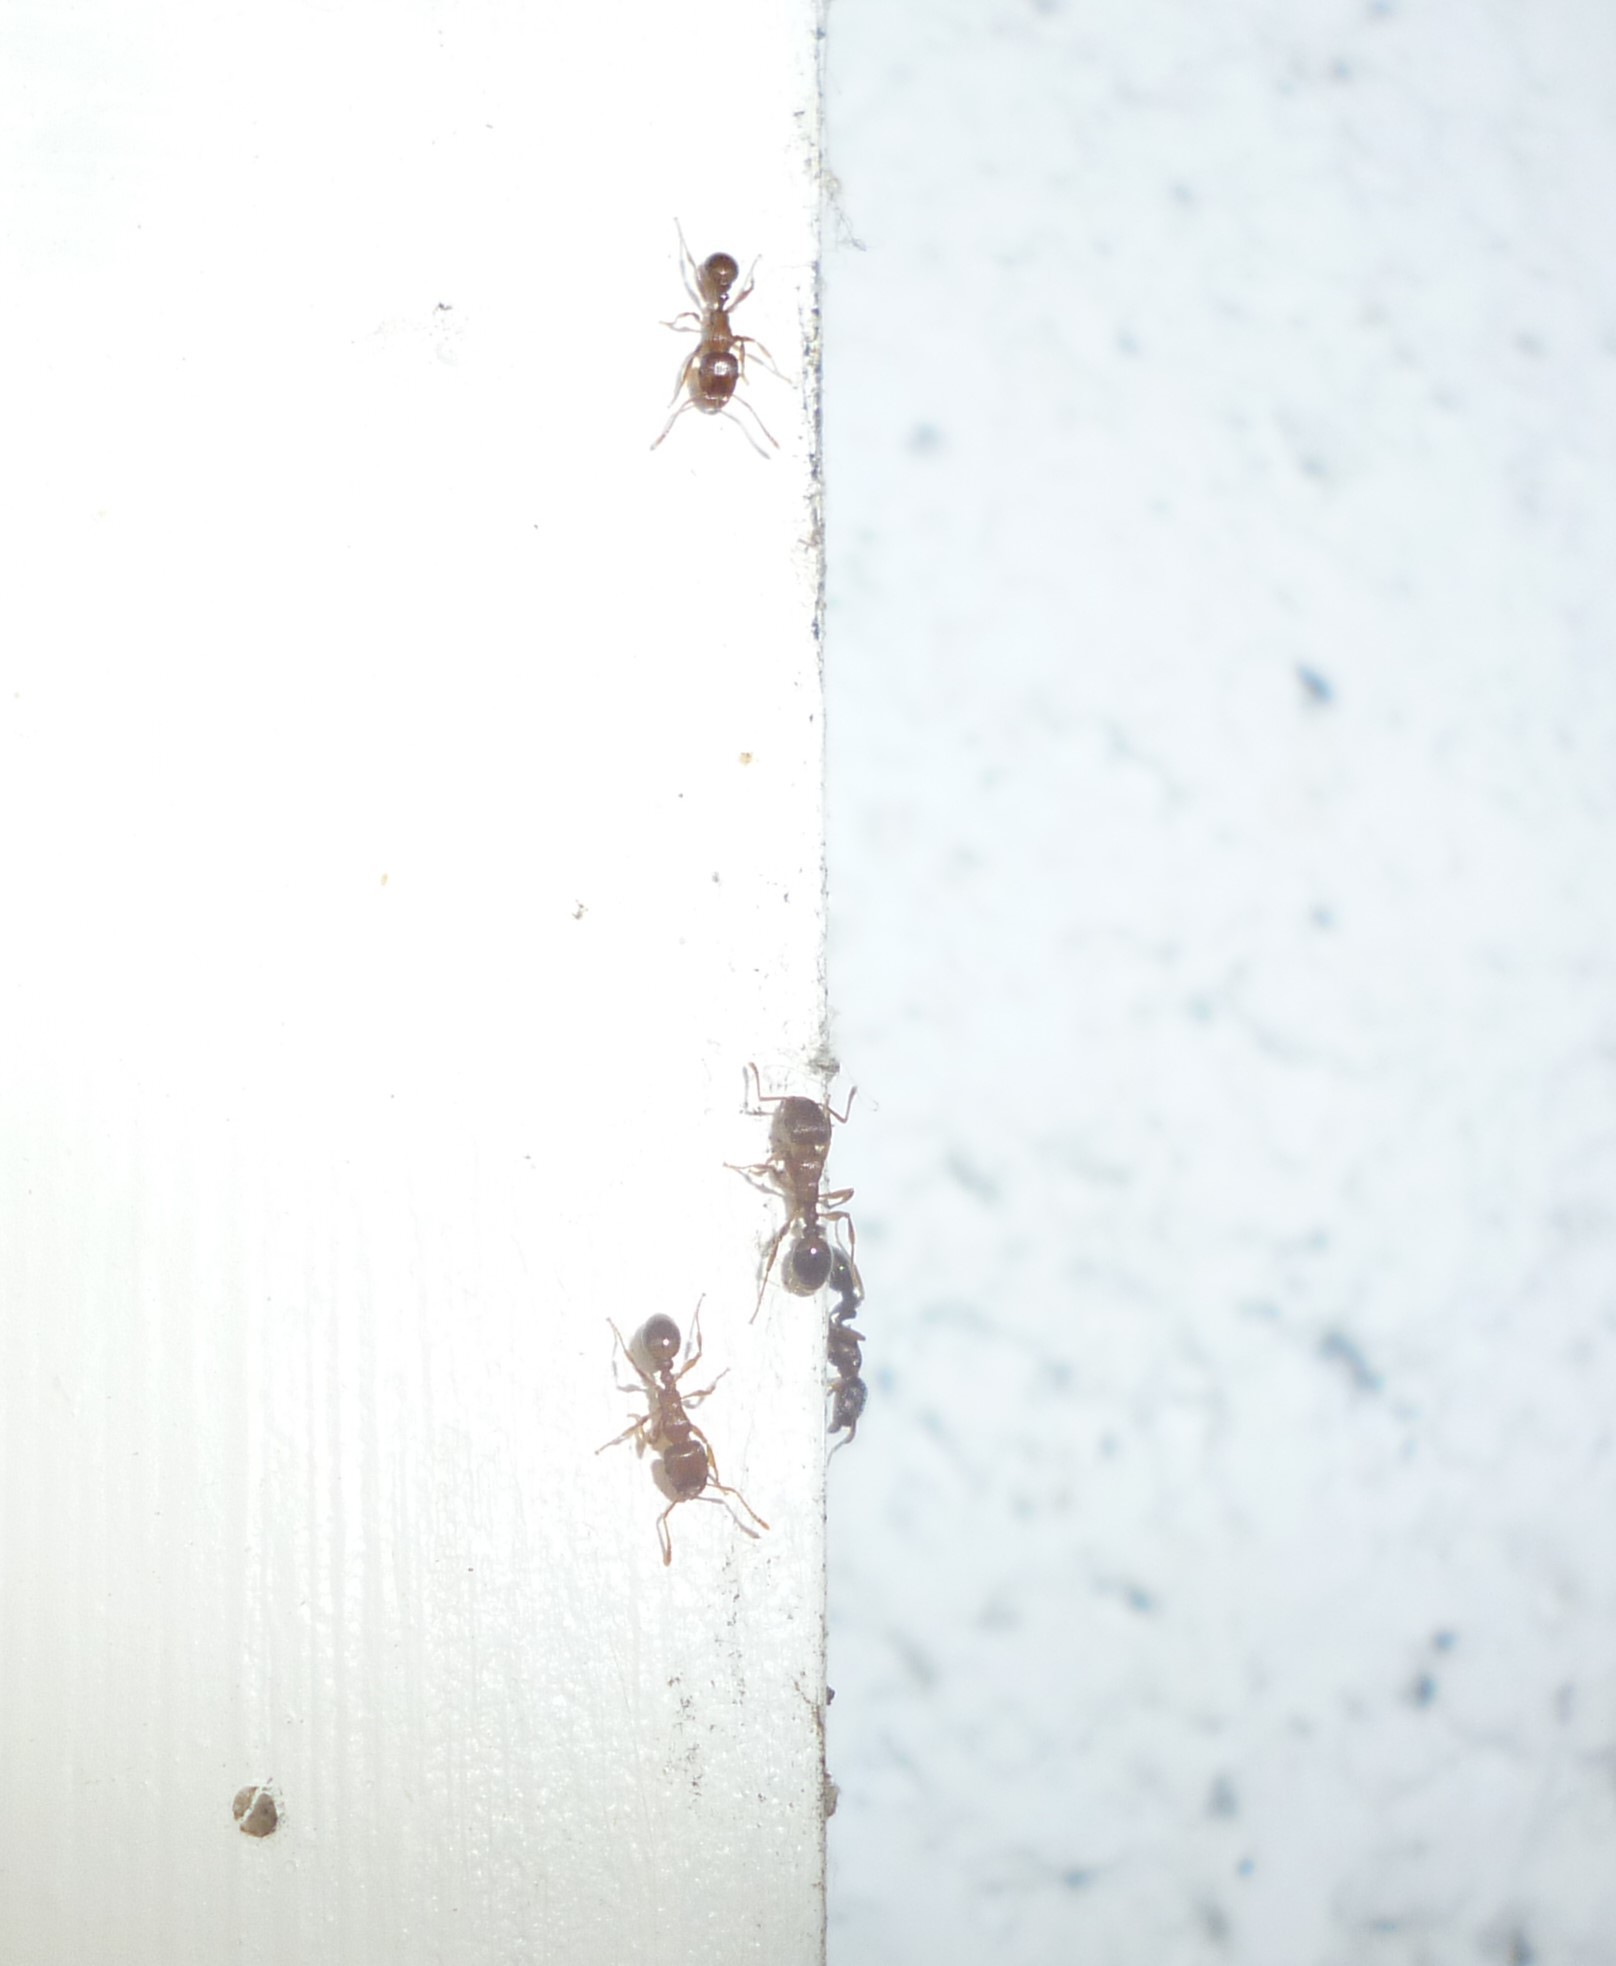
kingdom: Animalia
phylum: Arthropoda
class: Insecta
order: Hymenoptera
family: Formicidae
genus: Tetramorium
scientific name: Tetramorium immigrans
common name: Pavement ant
